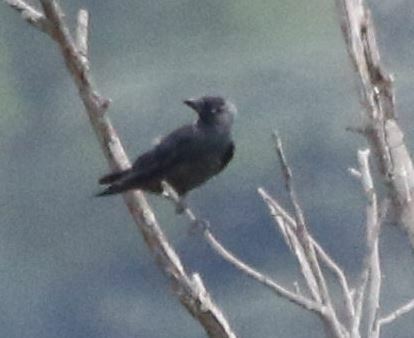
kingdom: Animalia
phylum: Chordata
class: Aves
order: Passeriformes
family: Corvidae
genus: Coloeus
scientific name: Coloeus monedula
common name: Western jackdaw
